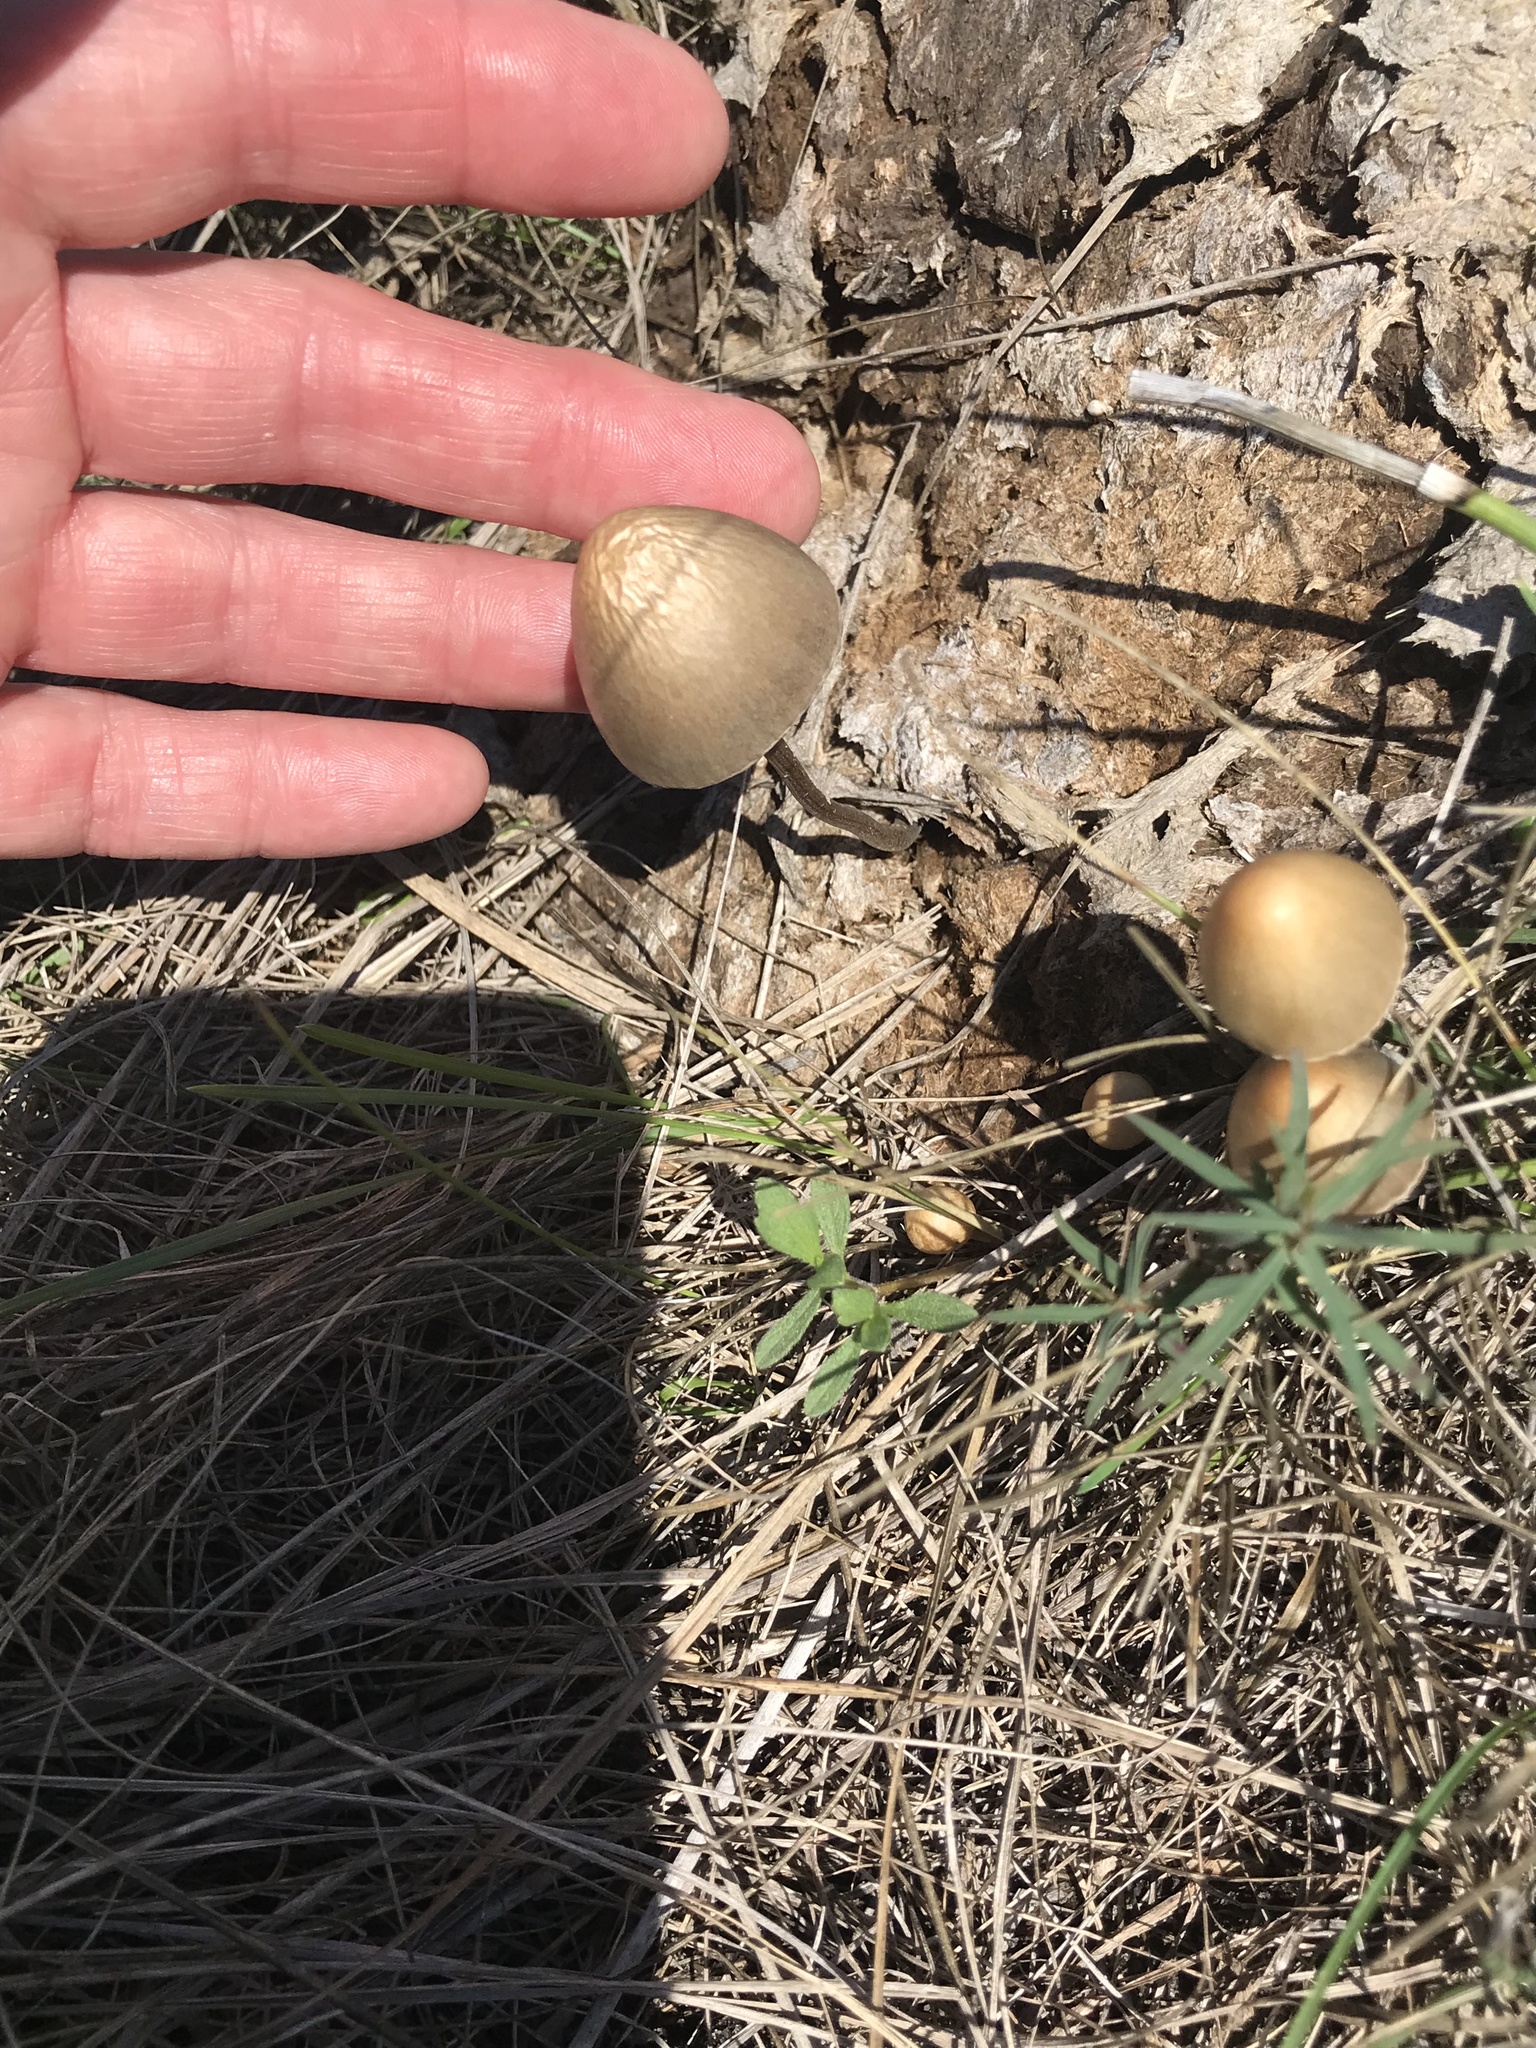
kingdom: Fungi
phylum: Basidiomycota
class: Agaricomycetes
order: Agaricales
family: Bolbitiaceae
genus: Panaeolus
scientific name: Panaeolus papilionaceus
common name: Petticoat mottlegill
